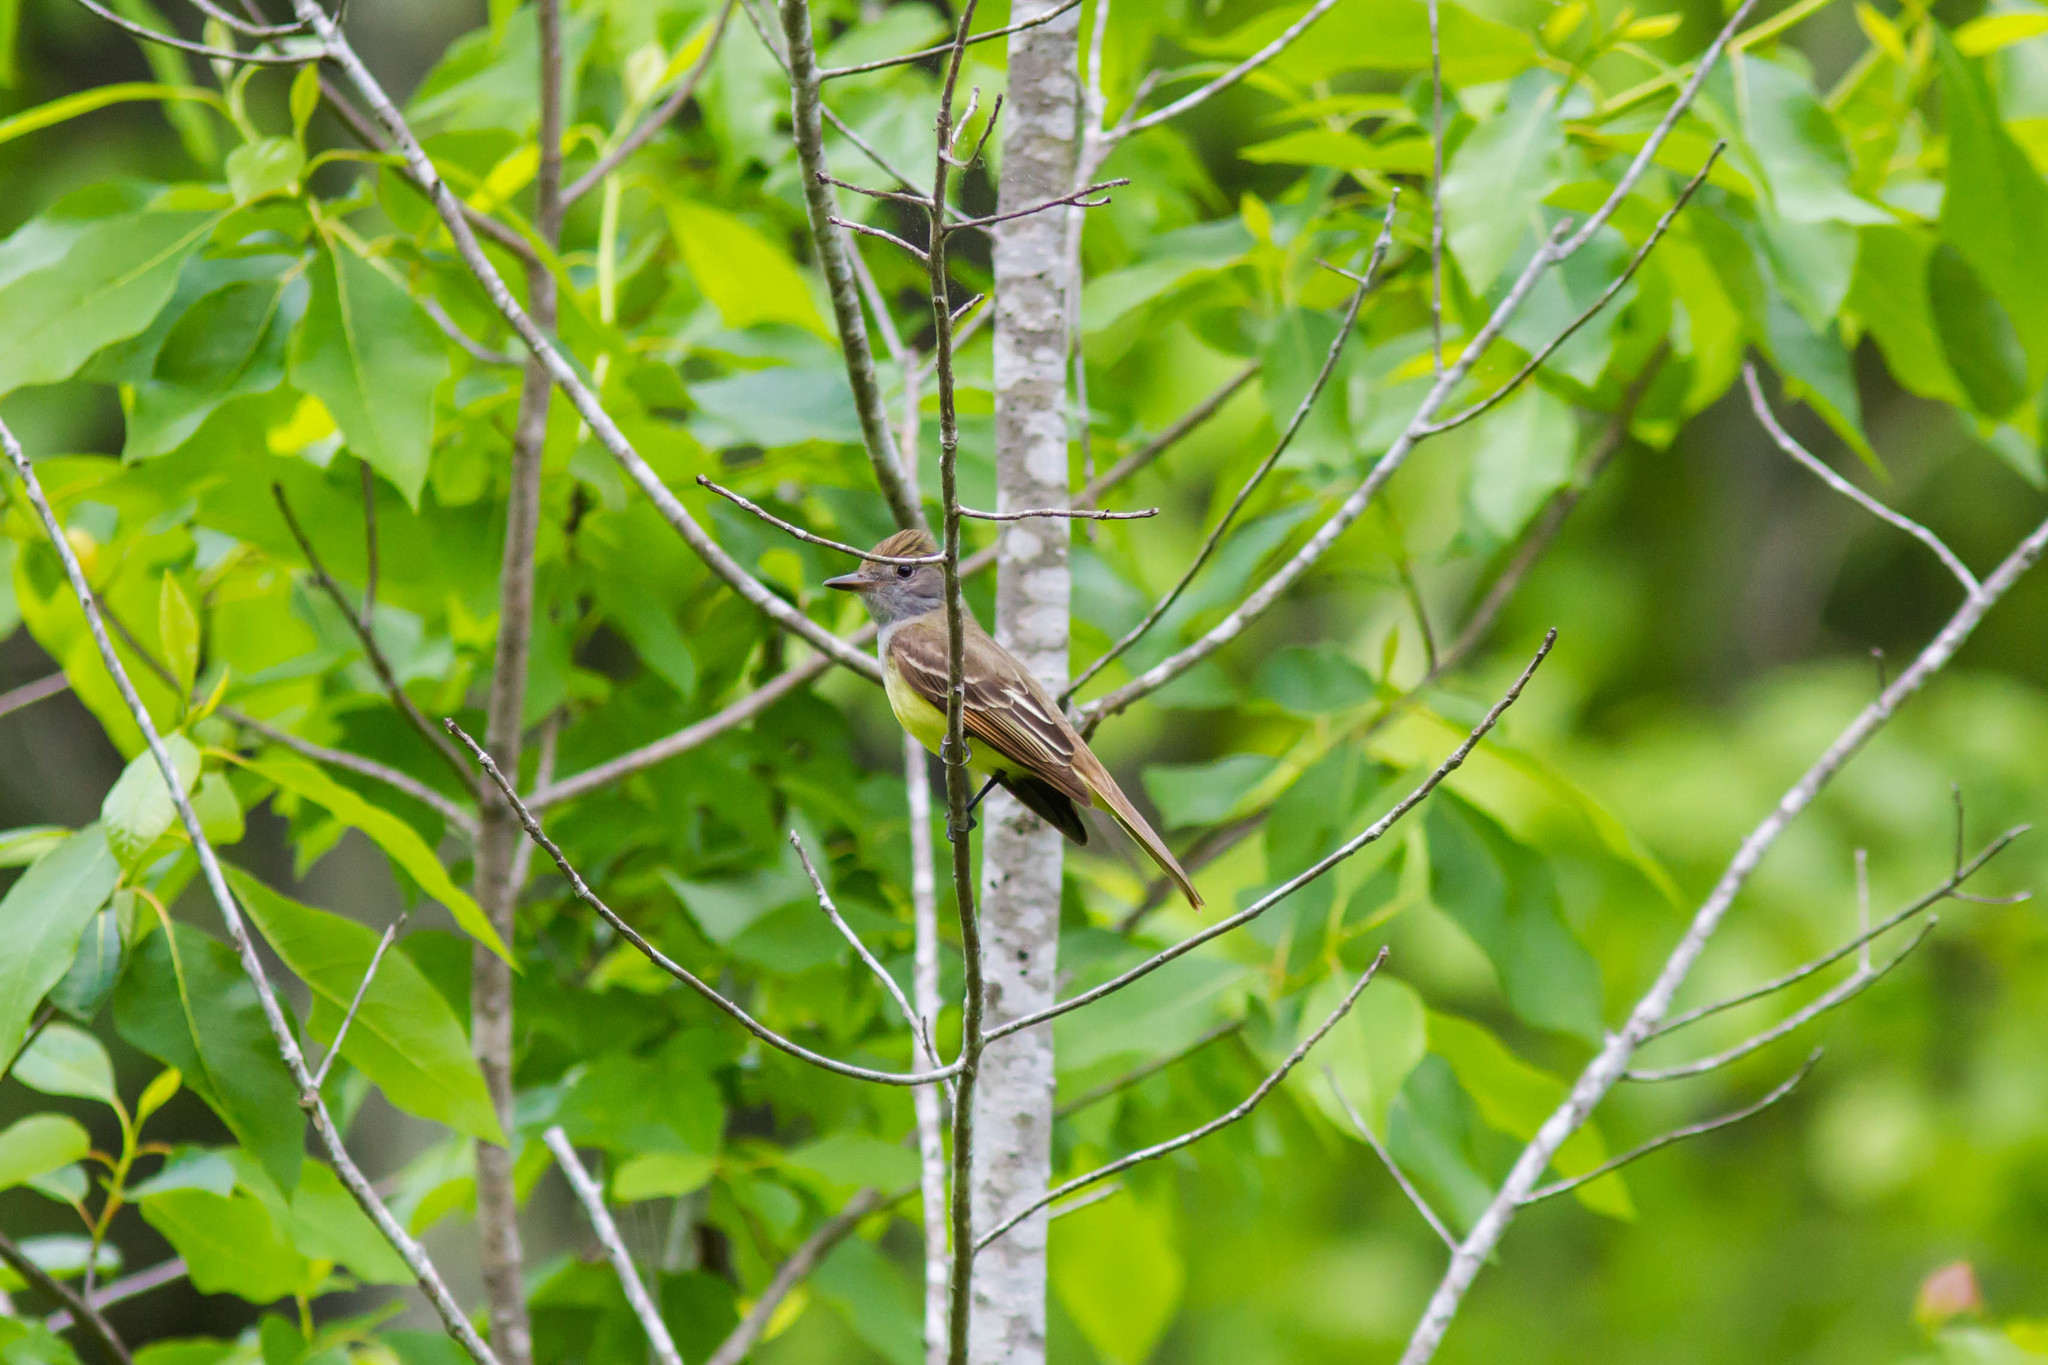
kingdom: Animalia
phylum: Chordata
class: Aves
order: Passeriformes
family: Tyrannidae
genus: Myiarchus
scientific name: Myiarchus crinitus
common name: Great crested flycatcher
